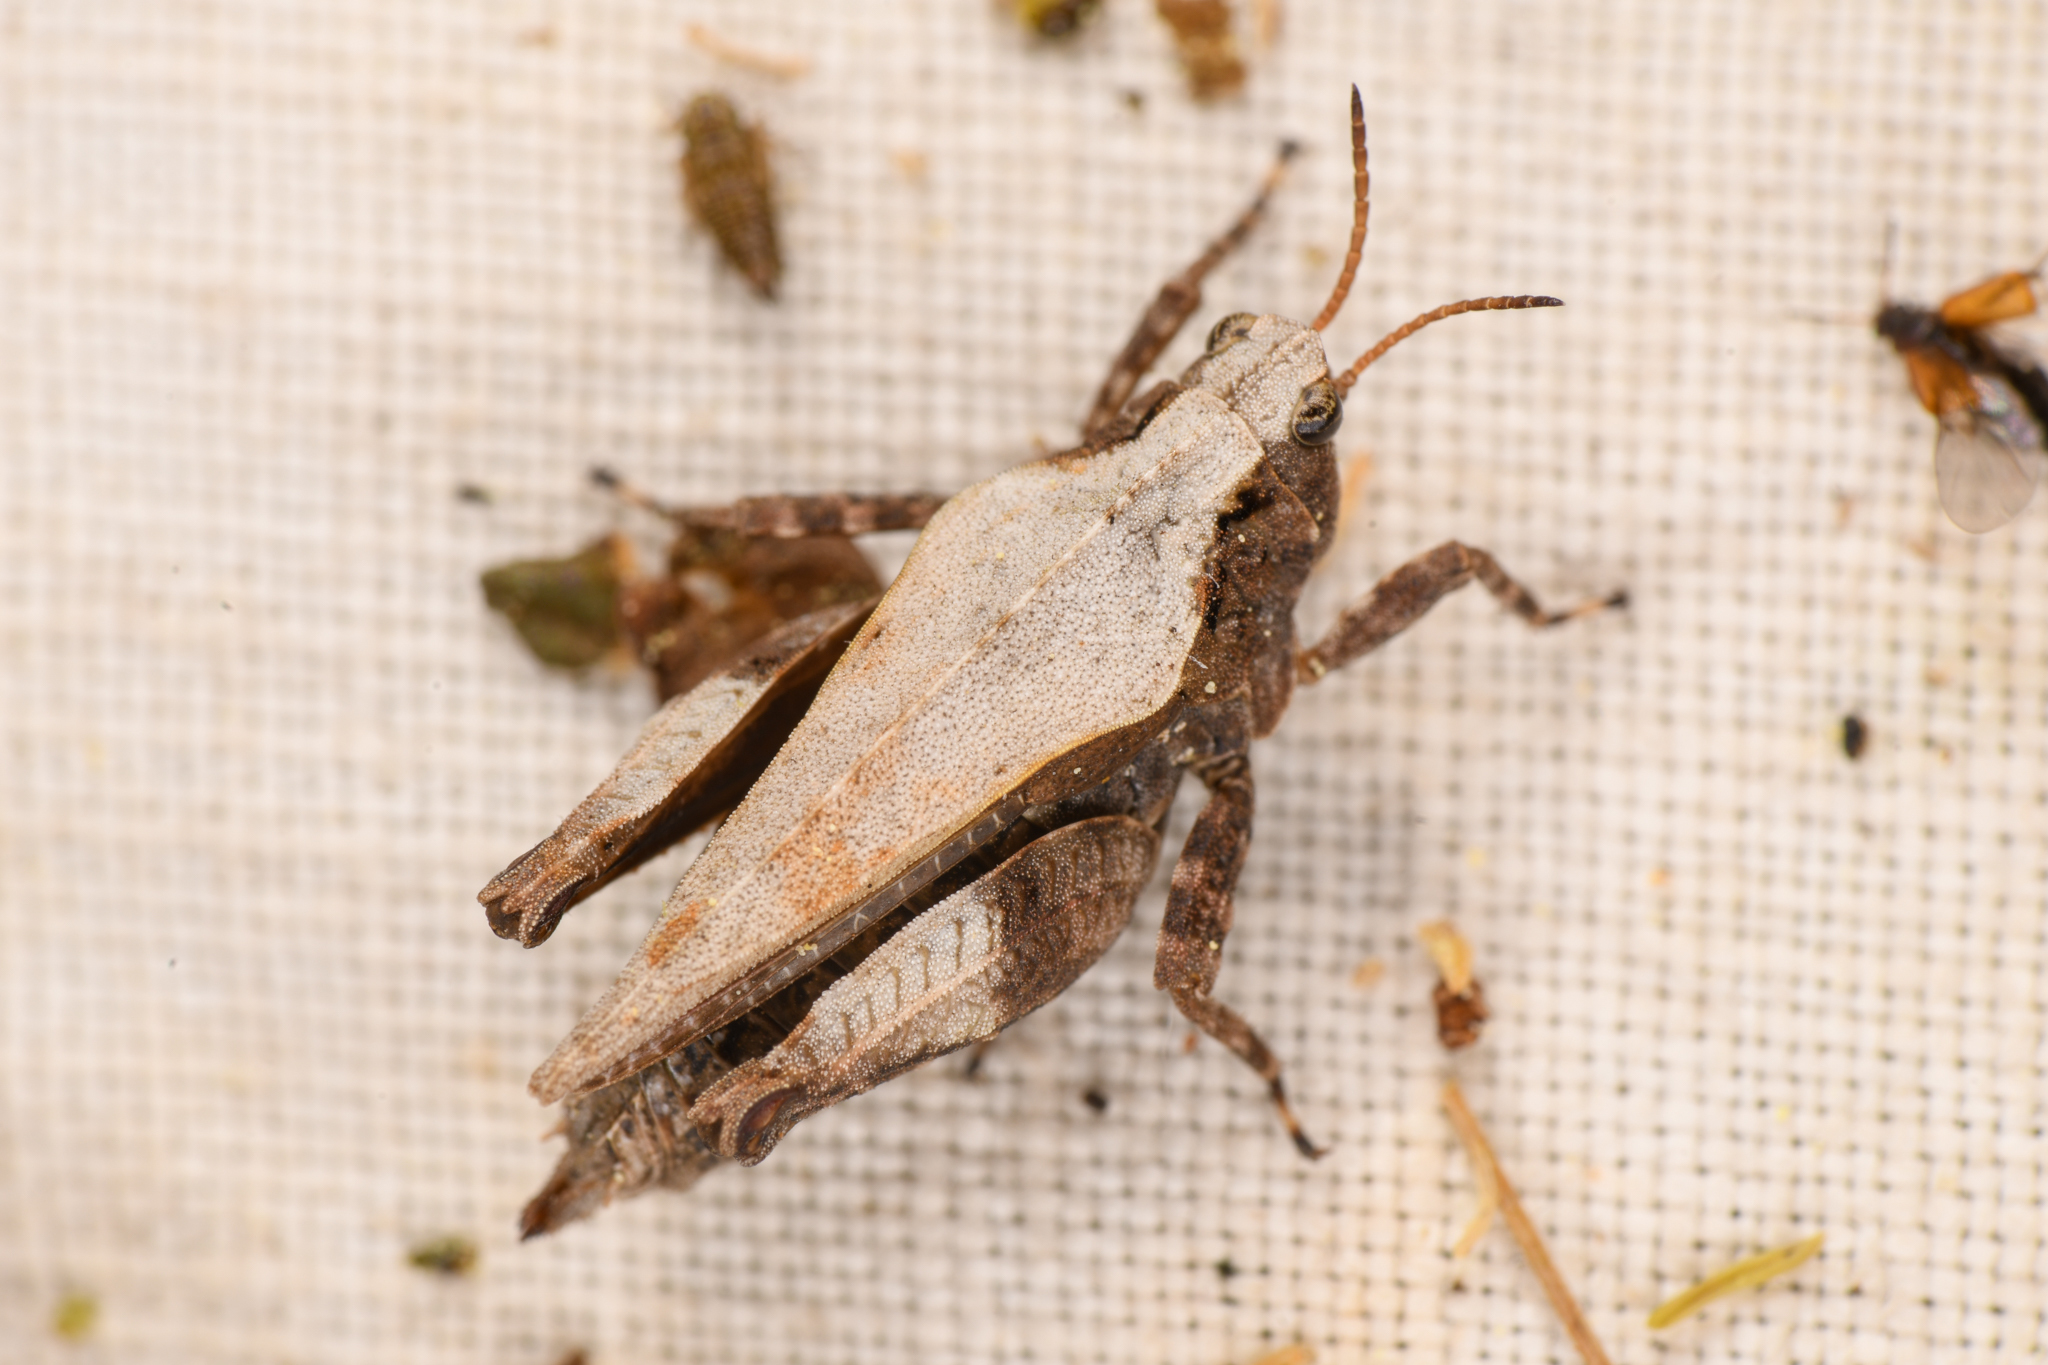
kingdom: Animalia
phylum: Arthropoda
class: Insecta
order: Orthoptera
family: Tetrigidae
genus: Tetrix
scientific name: Tetrix brunnerii
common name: Brunner's grouse locust
